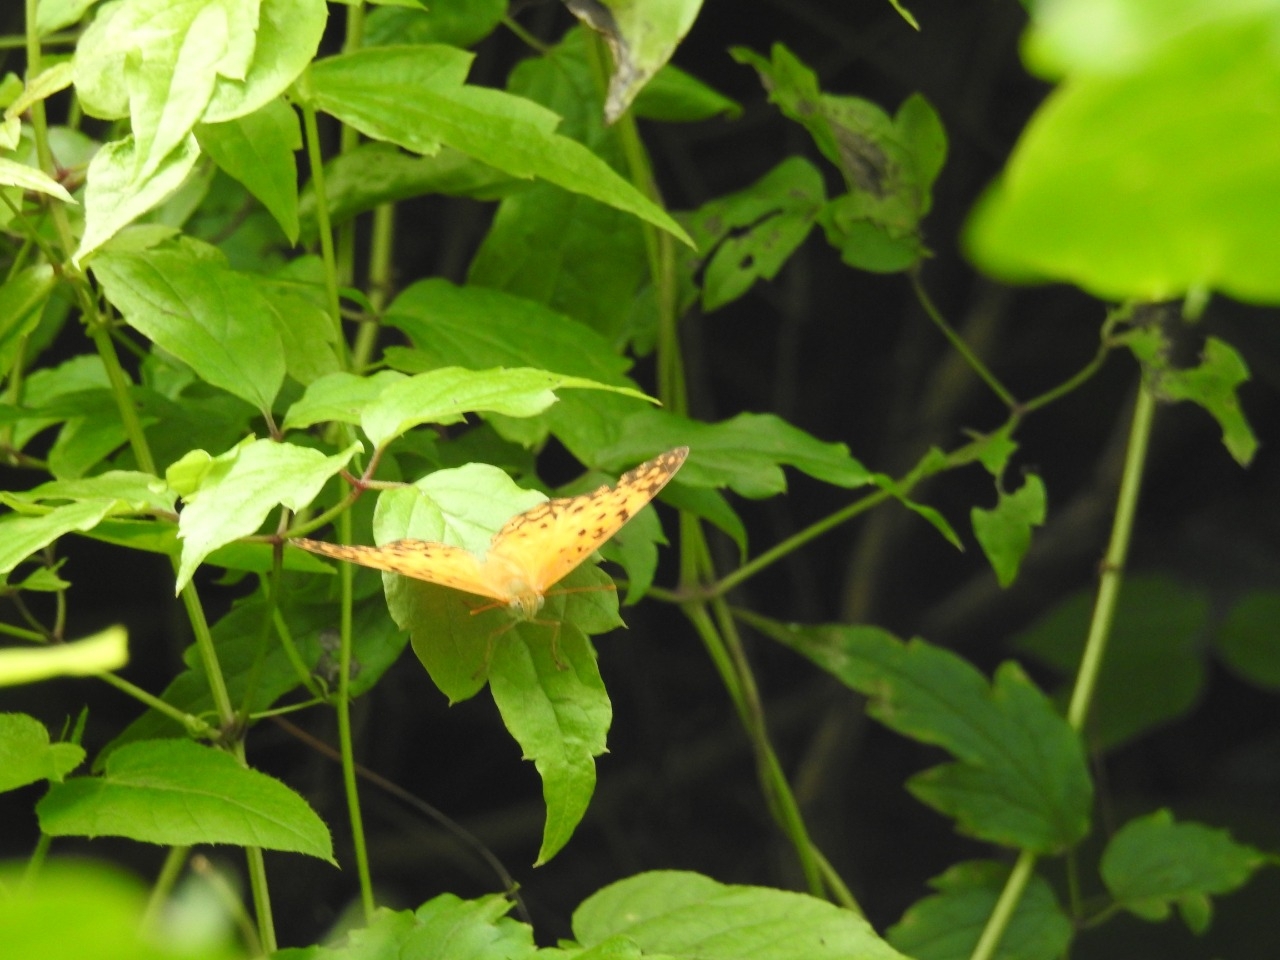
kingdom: Animalia
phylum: Arthropoda
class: Insecta
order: Lepidoptera
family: Nymphalidae
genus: Phalanta
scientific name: Phalanta phalantha
